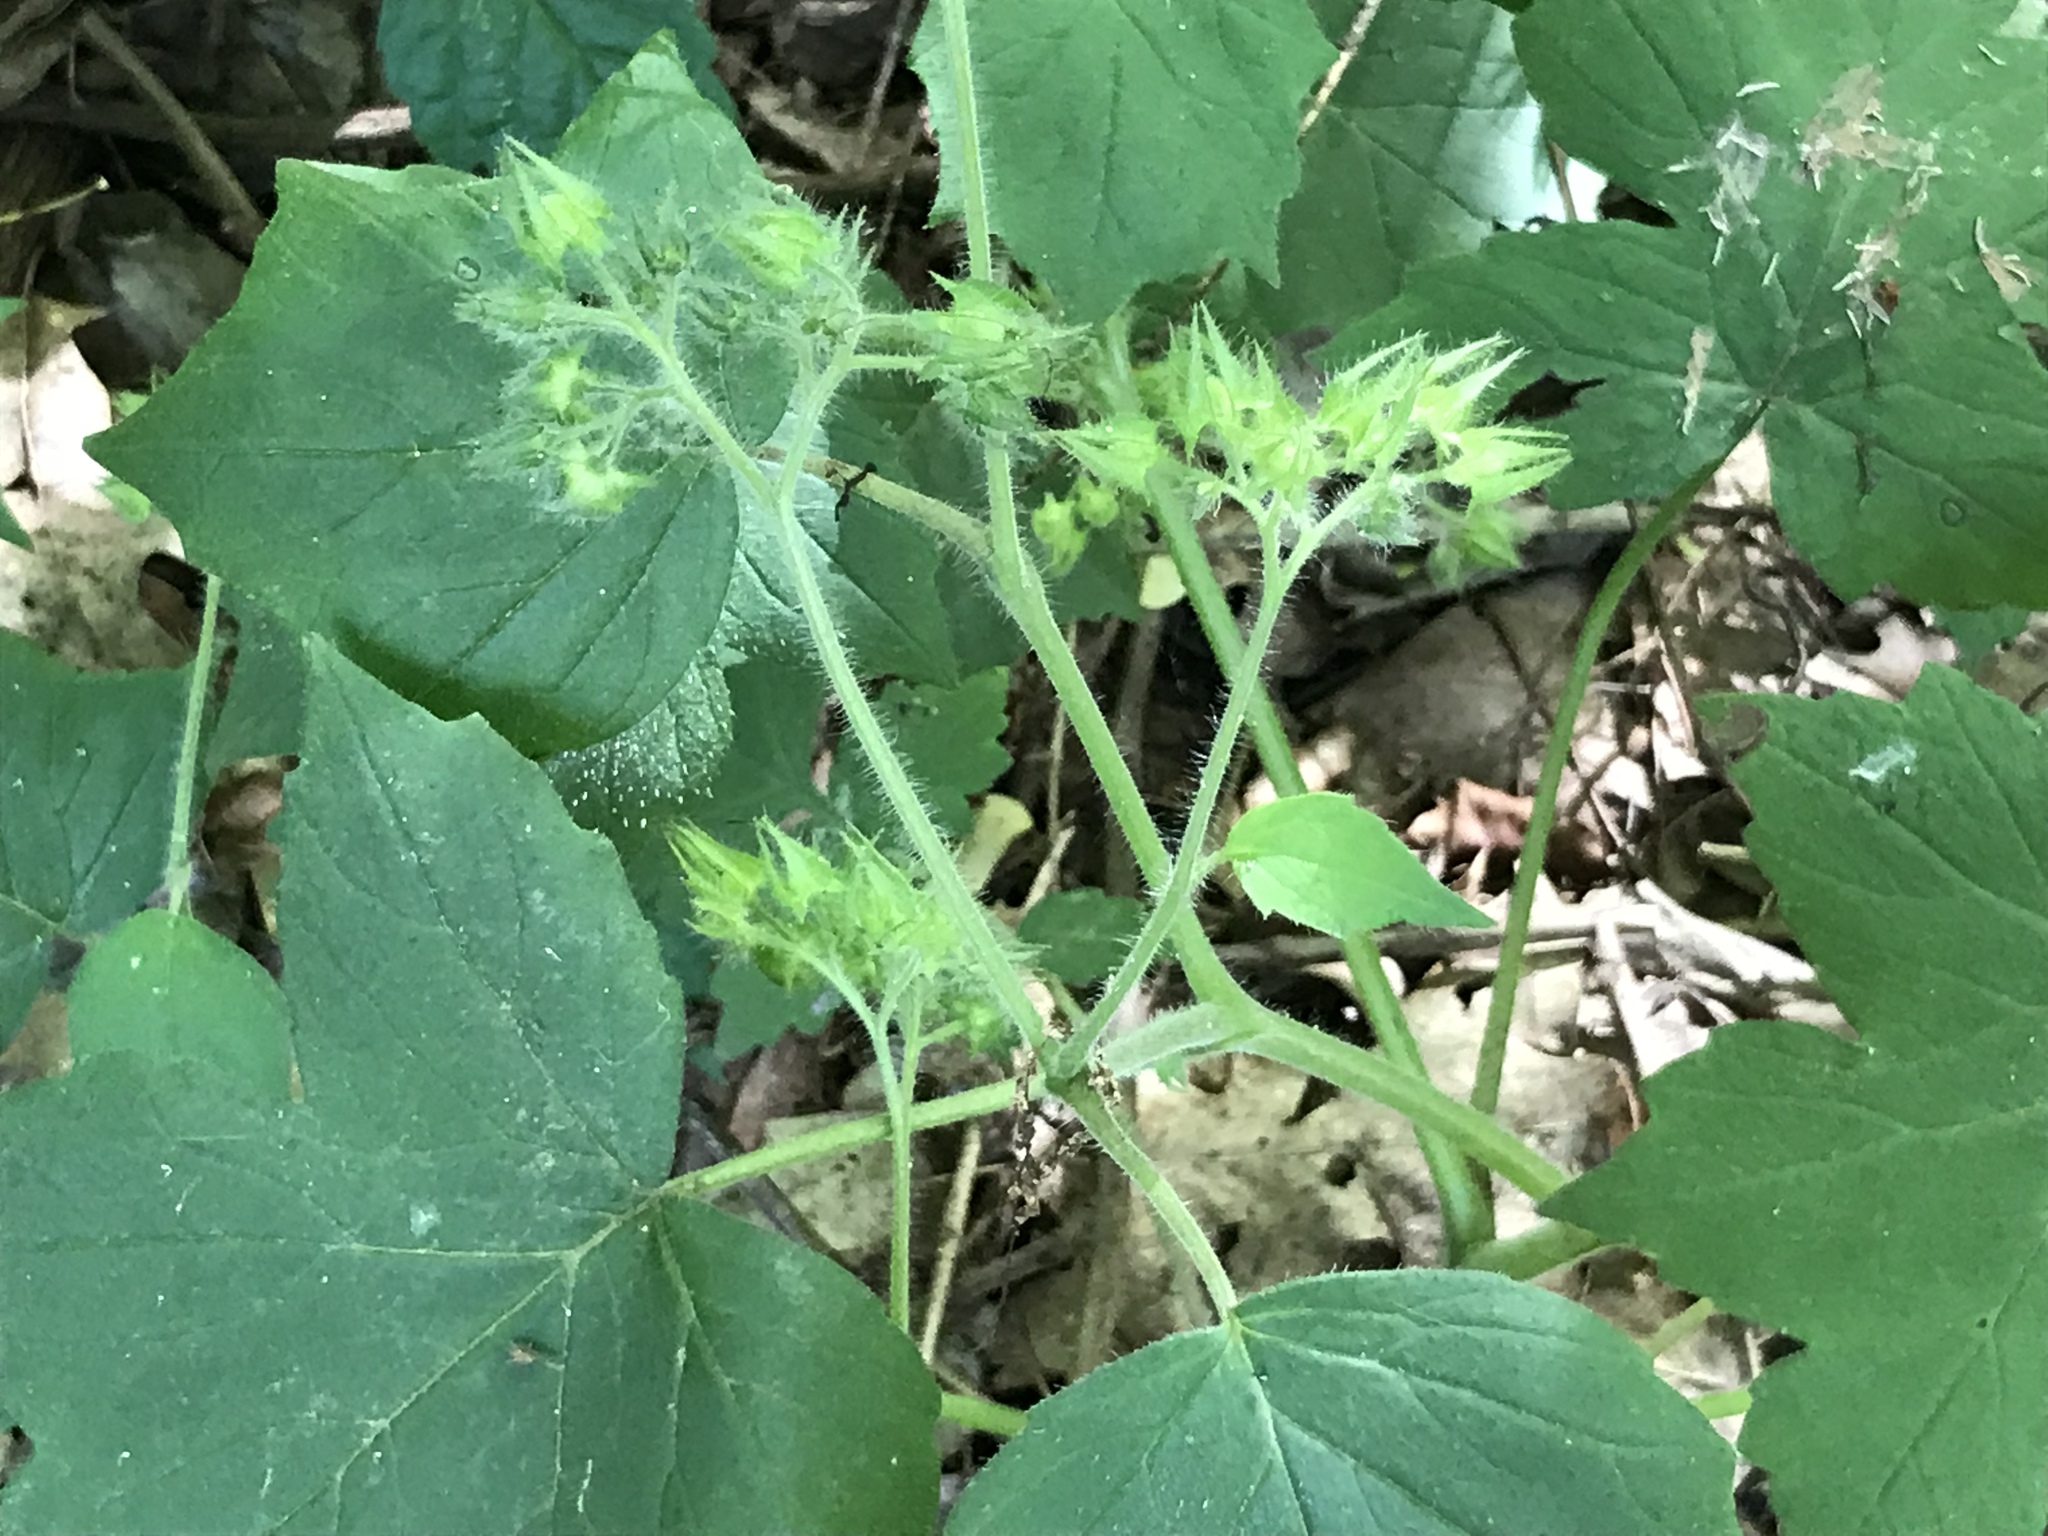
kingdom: Plantae
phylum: Tracheophyta
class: Magnoliopsida
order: Boraginales
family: Hydrophyllaceae
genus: Hydrophyllum
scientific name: Hydrophyllum appendiculatum
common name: Appendaged waterleaf
